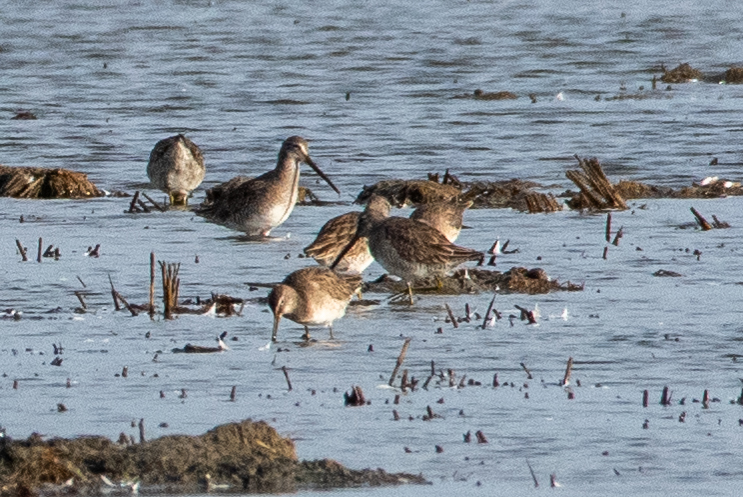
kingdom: Animalia
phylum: Chordata
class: Aves
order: Charadriiformes
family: Scolopacidae
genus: Limnodromus
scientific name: Limnodromus scolopaceus
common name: Long-billed dowitcher
